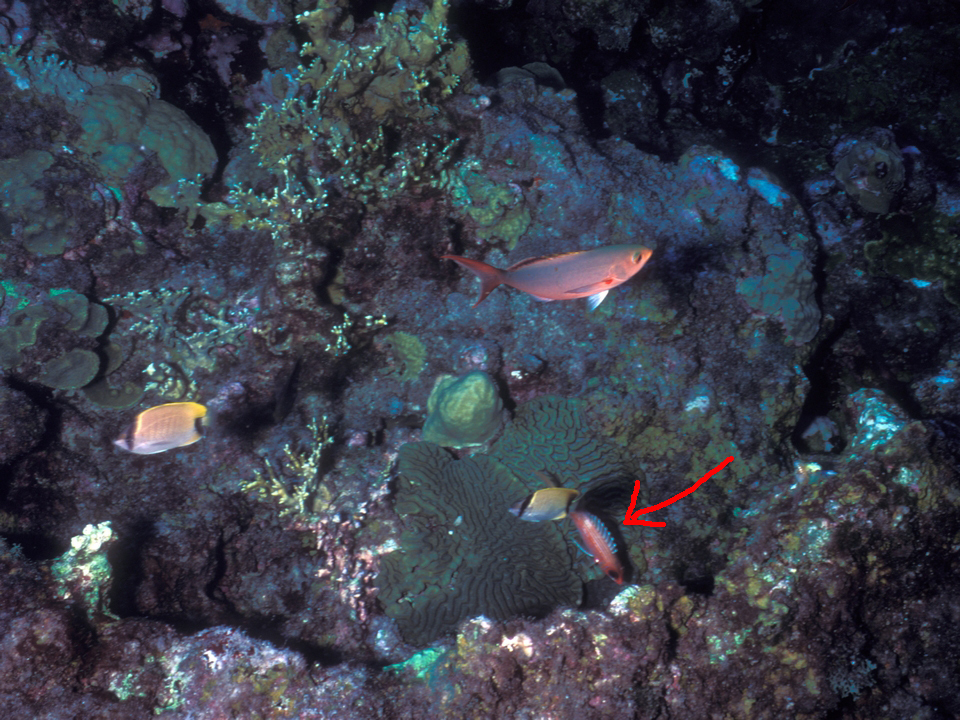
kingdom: Animalia
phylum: Chordata
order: Beryciformes
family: Holocentridae
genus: Holocentrus
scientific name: Holocentrus rufus
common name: Longspine squirrelfish
